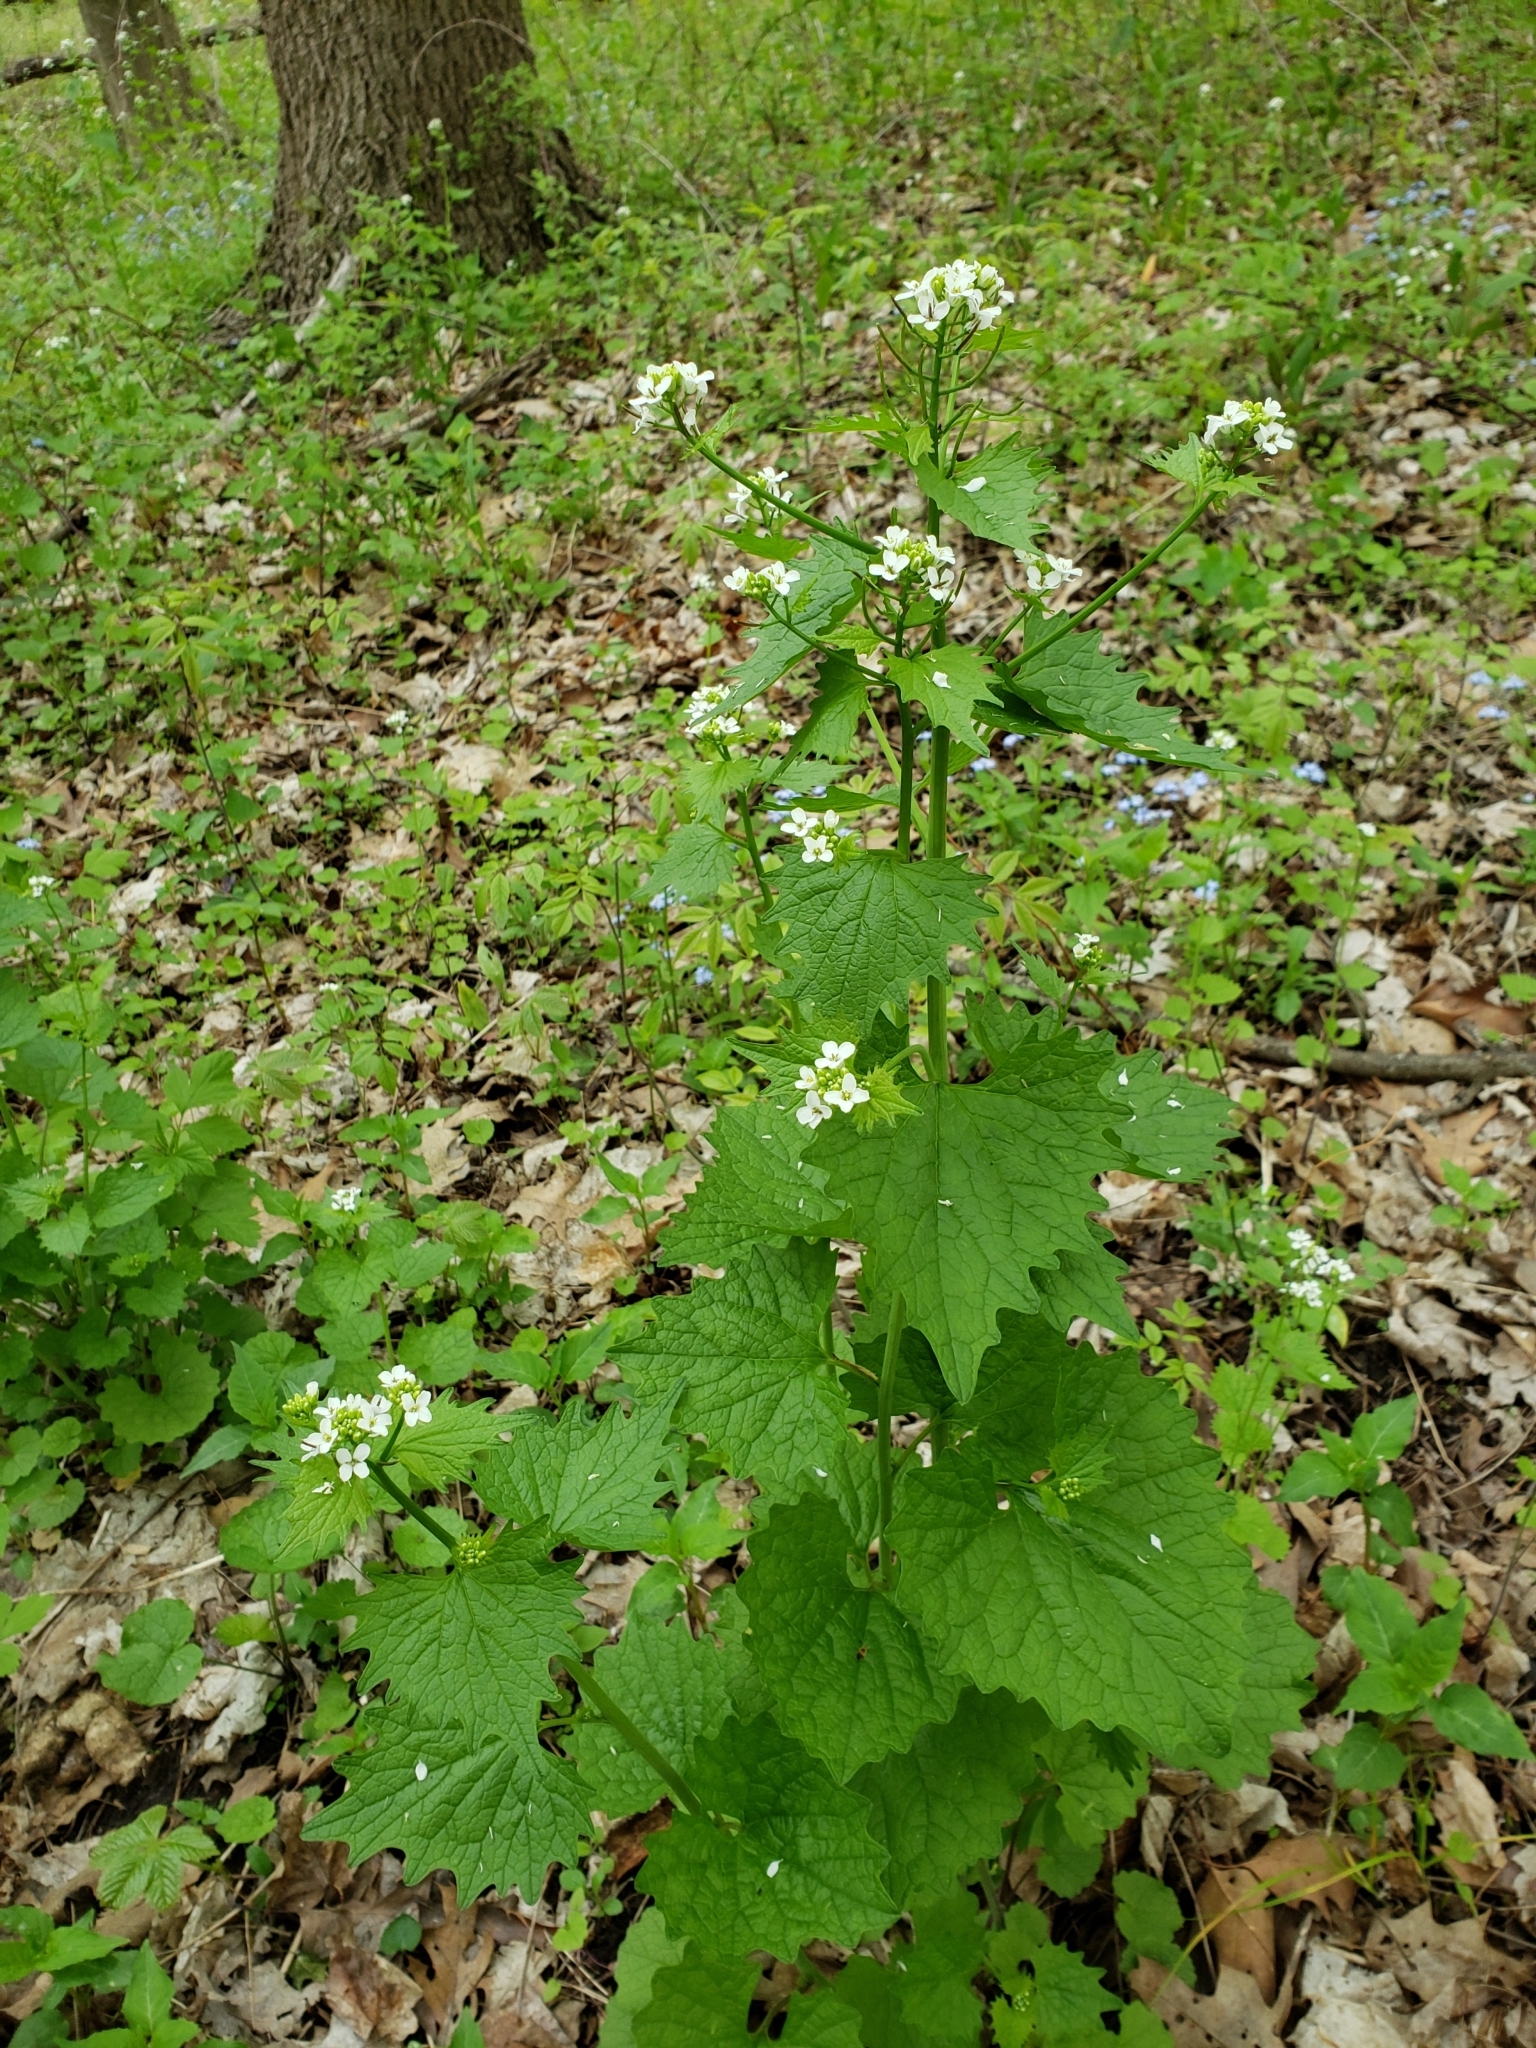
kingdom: Plantae
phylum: Tracheophyta
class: Magnoliopsida
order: Brassicales
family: Brassicaceae
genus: Alliaria
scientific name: Alliaria petiolata
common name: Garlic mustard
